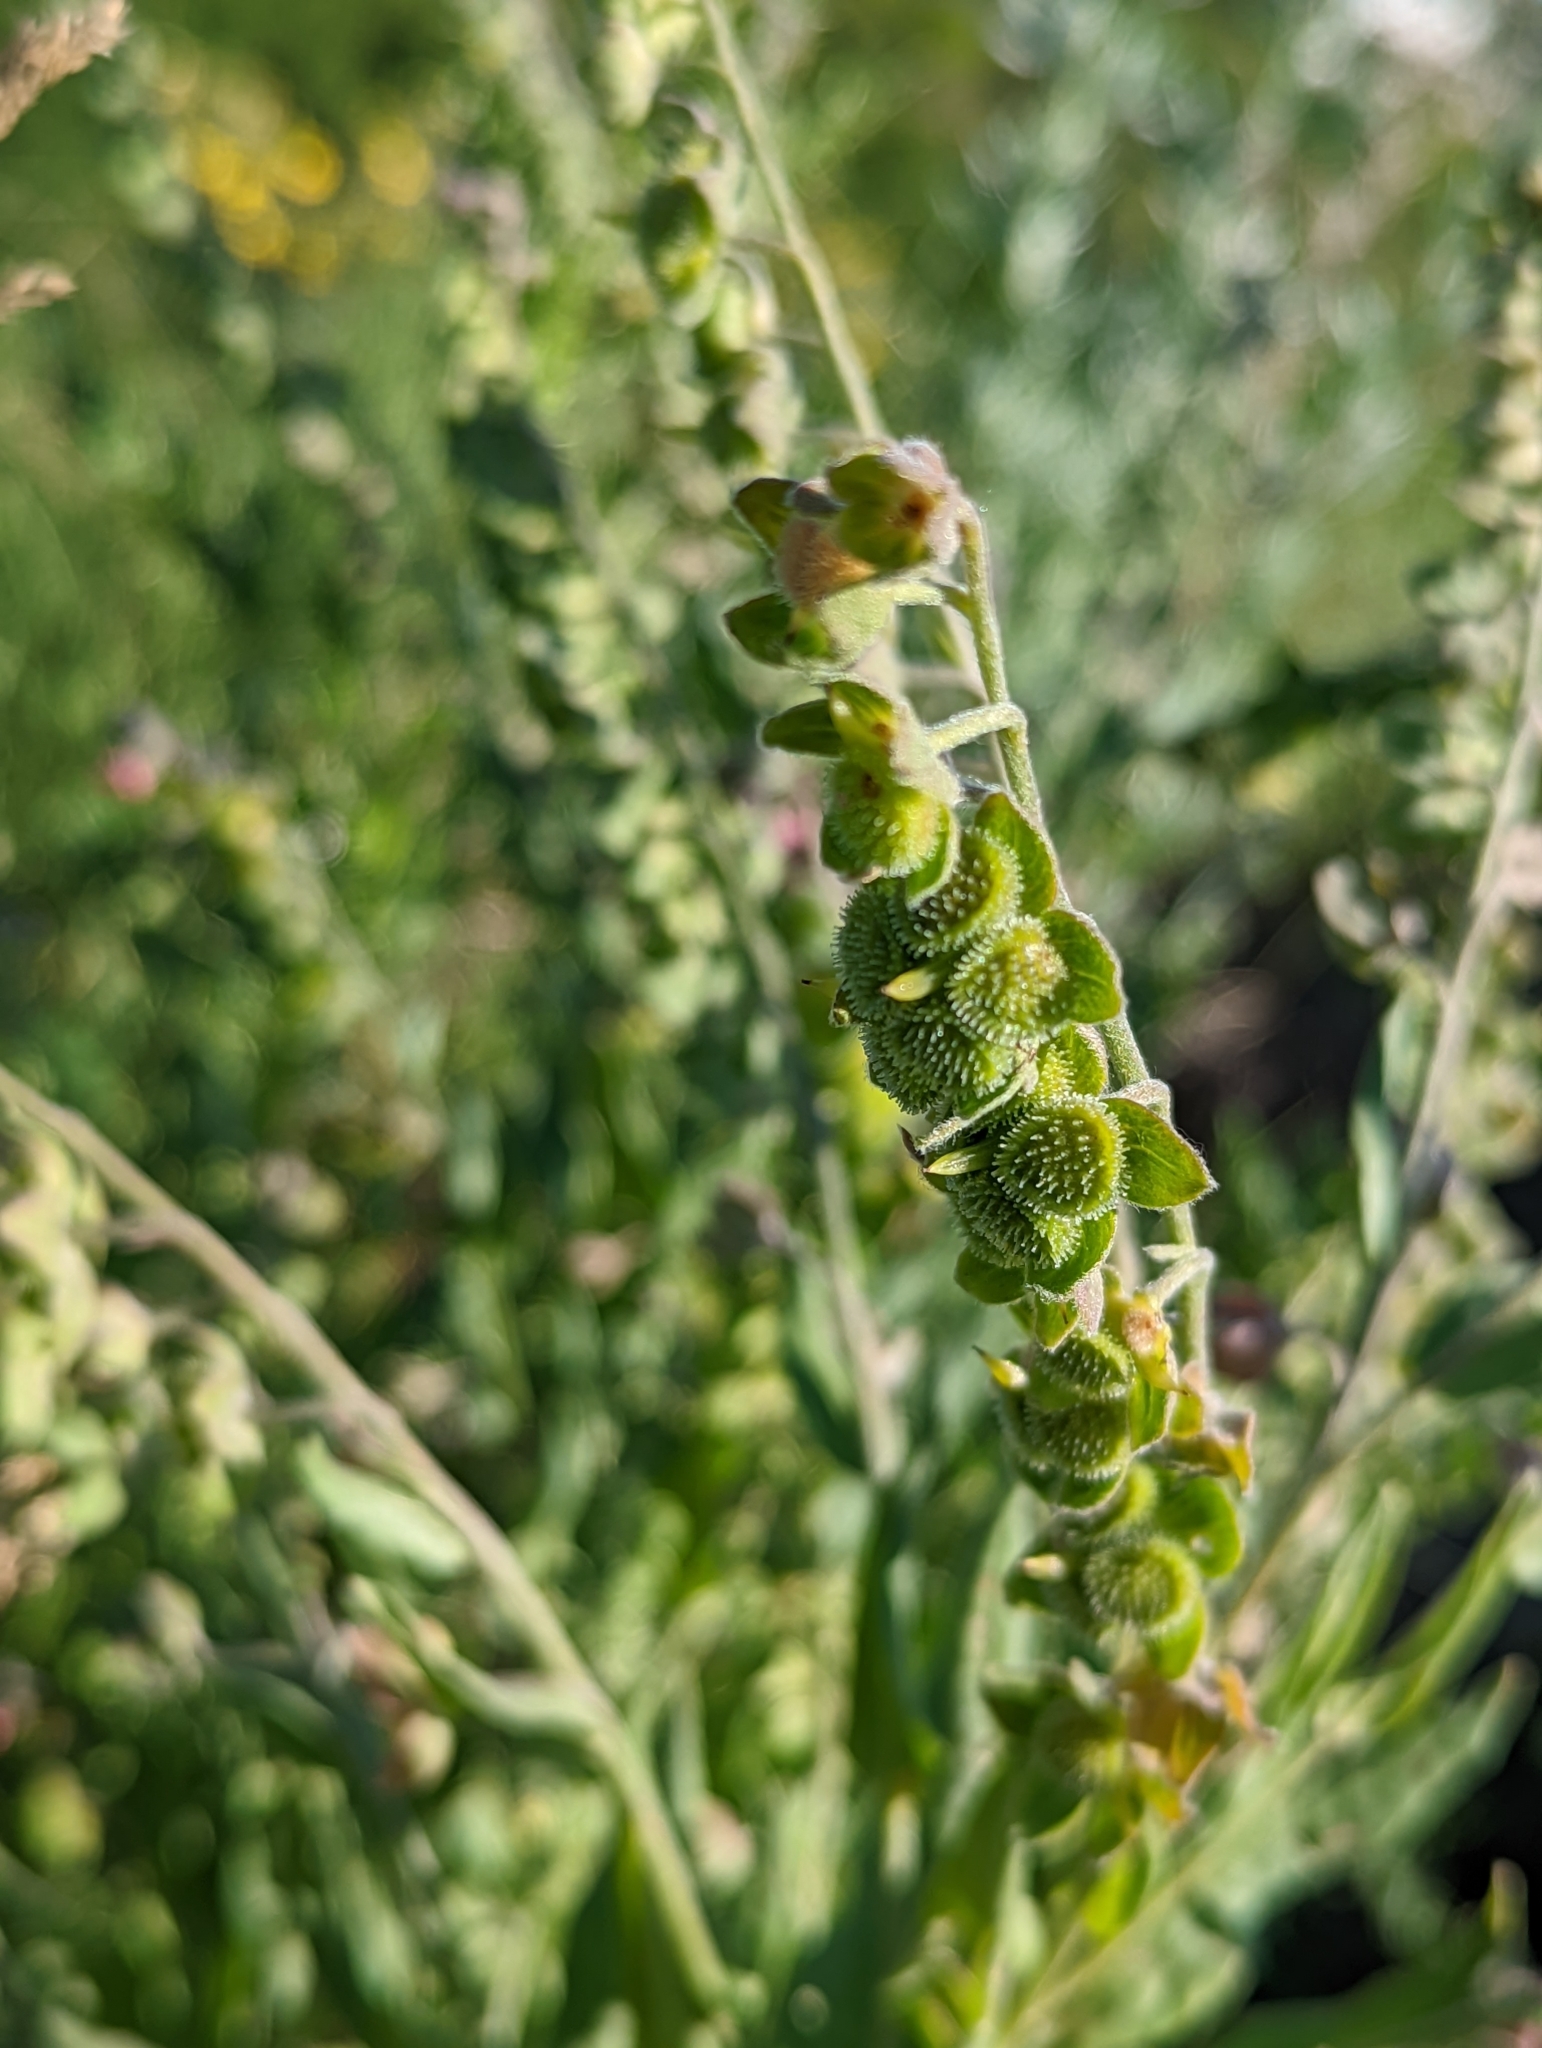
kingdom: Plantae
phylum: Tracheophyta
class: Magnoliopsida
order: Boraginales
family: Boraginaceae
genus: Cynoglossum
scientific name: Cynoglossum officinale
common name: Hound's-tongue
